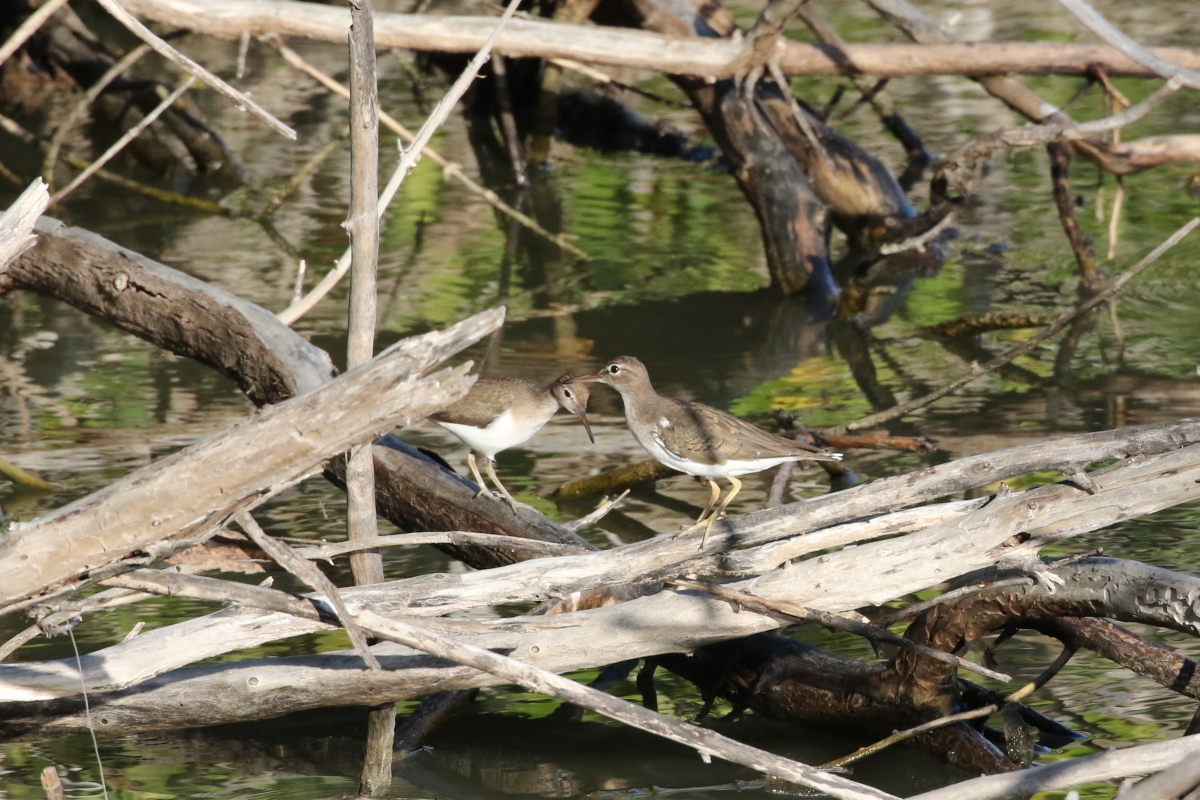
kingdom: Animalia
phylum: Chordata
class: Aves
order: Charadriiformes
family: Scolopacidae
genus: Actitis
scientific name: Actitis macularius
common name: Spotted sandpiper
